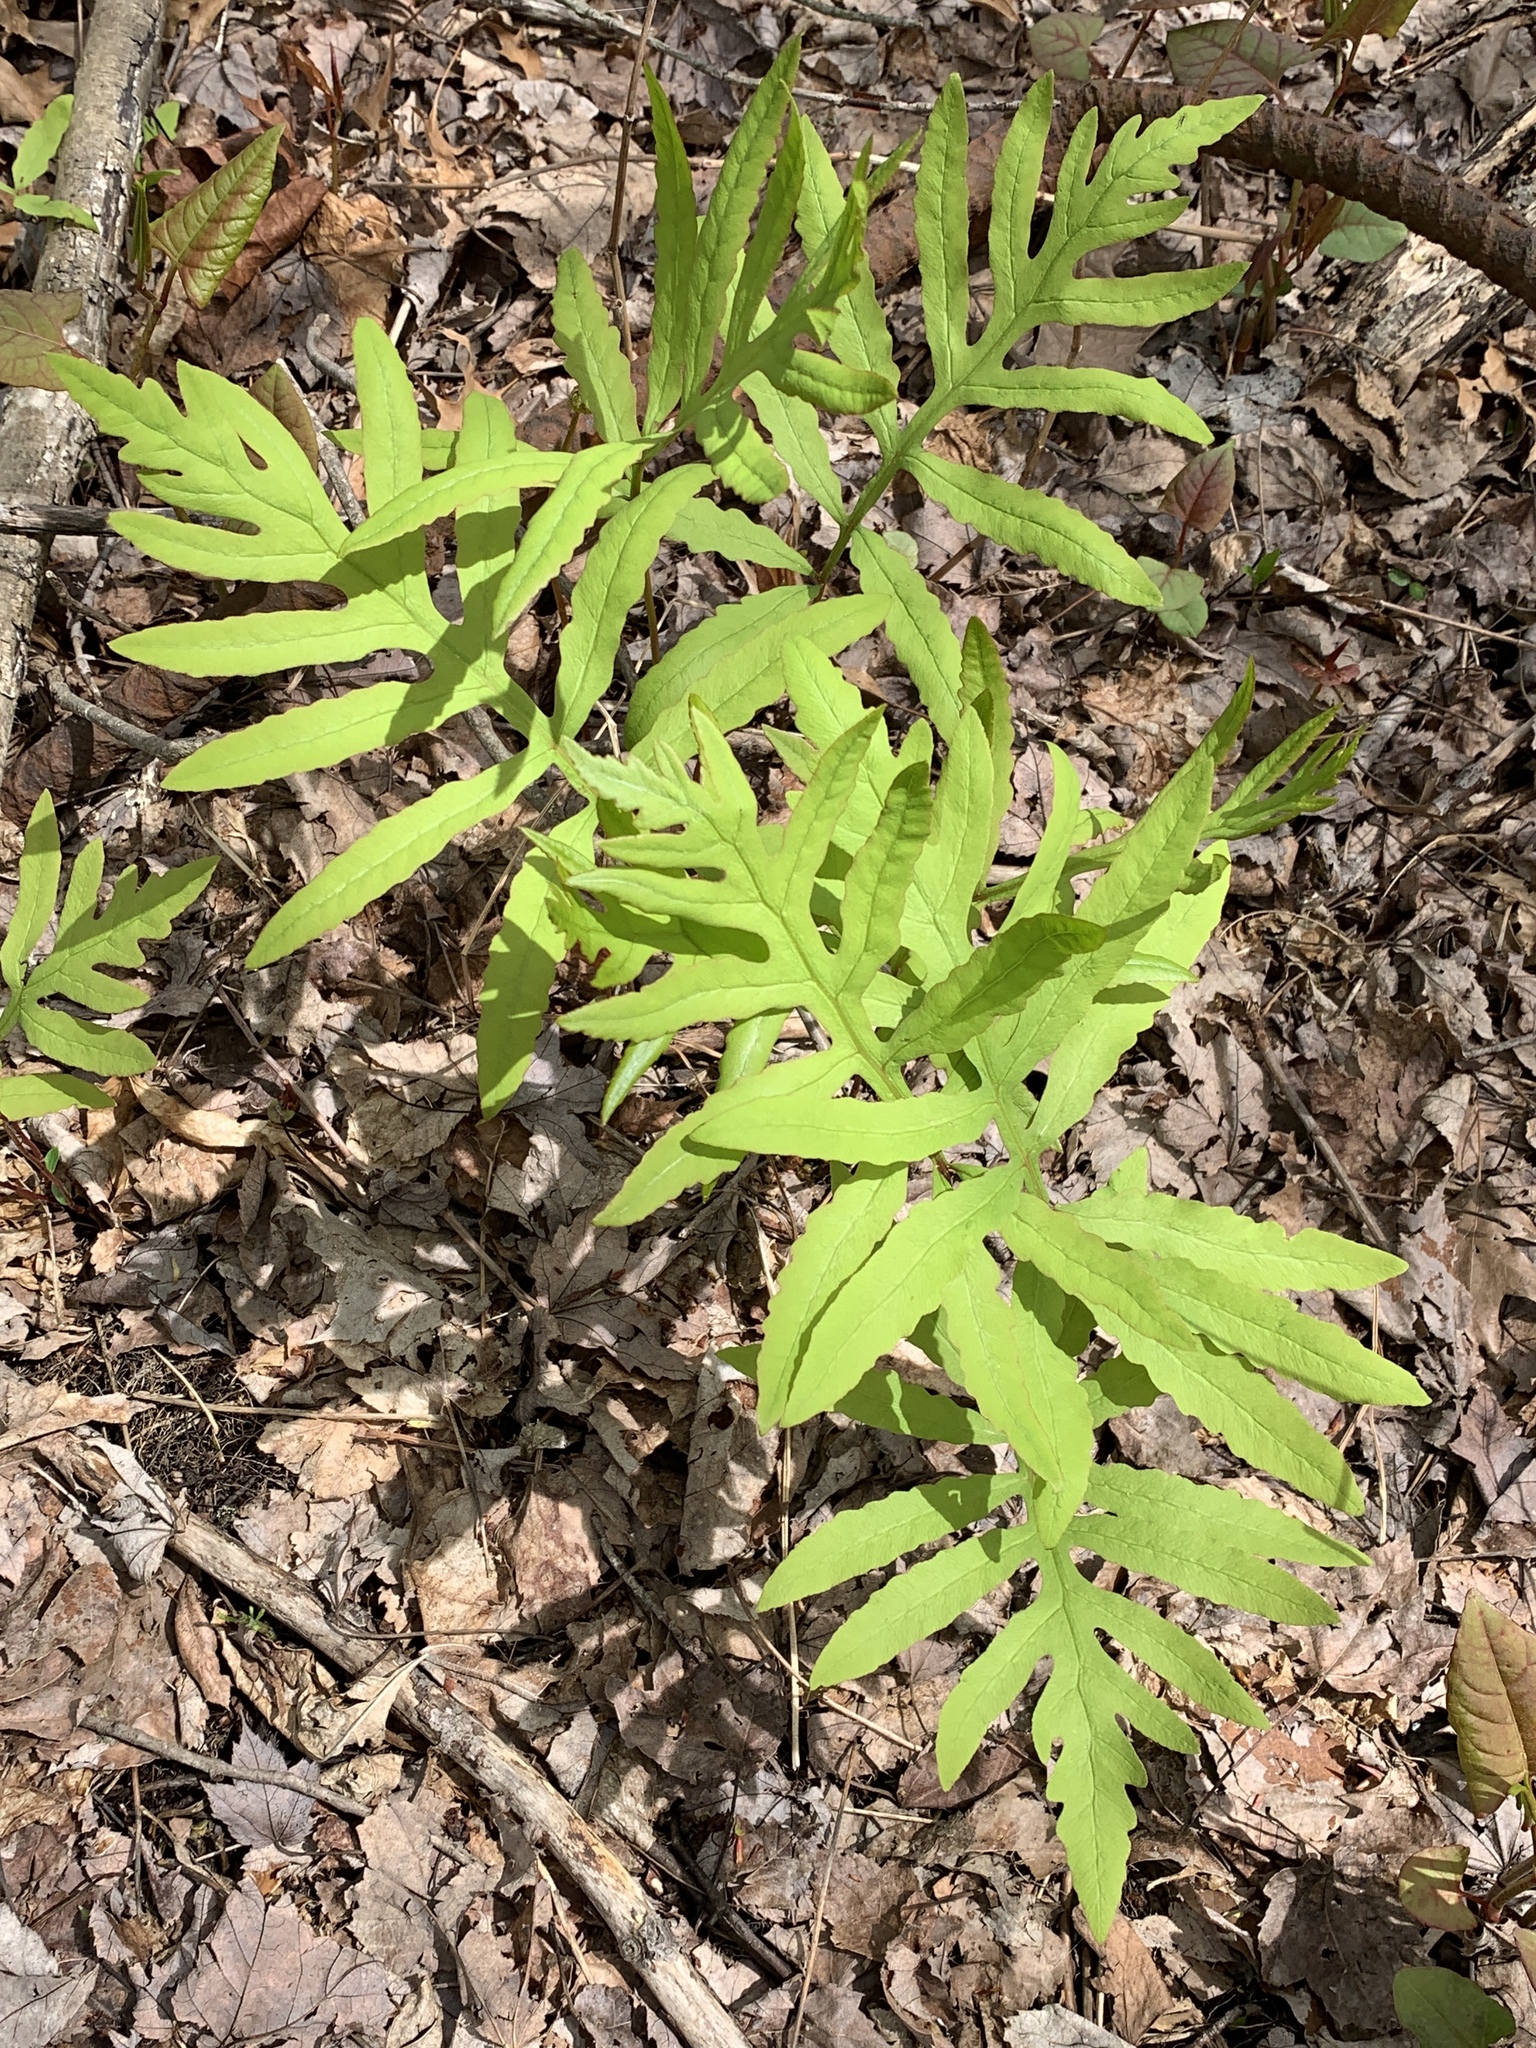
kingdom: Plantae
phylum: Tracheophyta
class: Polypodiopsida
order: Polypodiales
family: Onocleaceae
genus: Onoclea
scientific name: Onoclea sensibilis
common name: Sensitive fern
